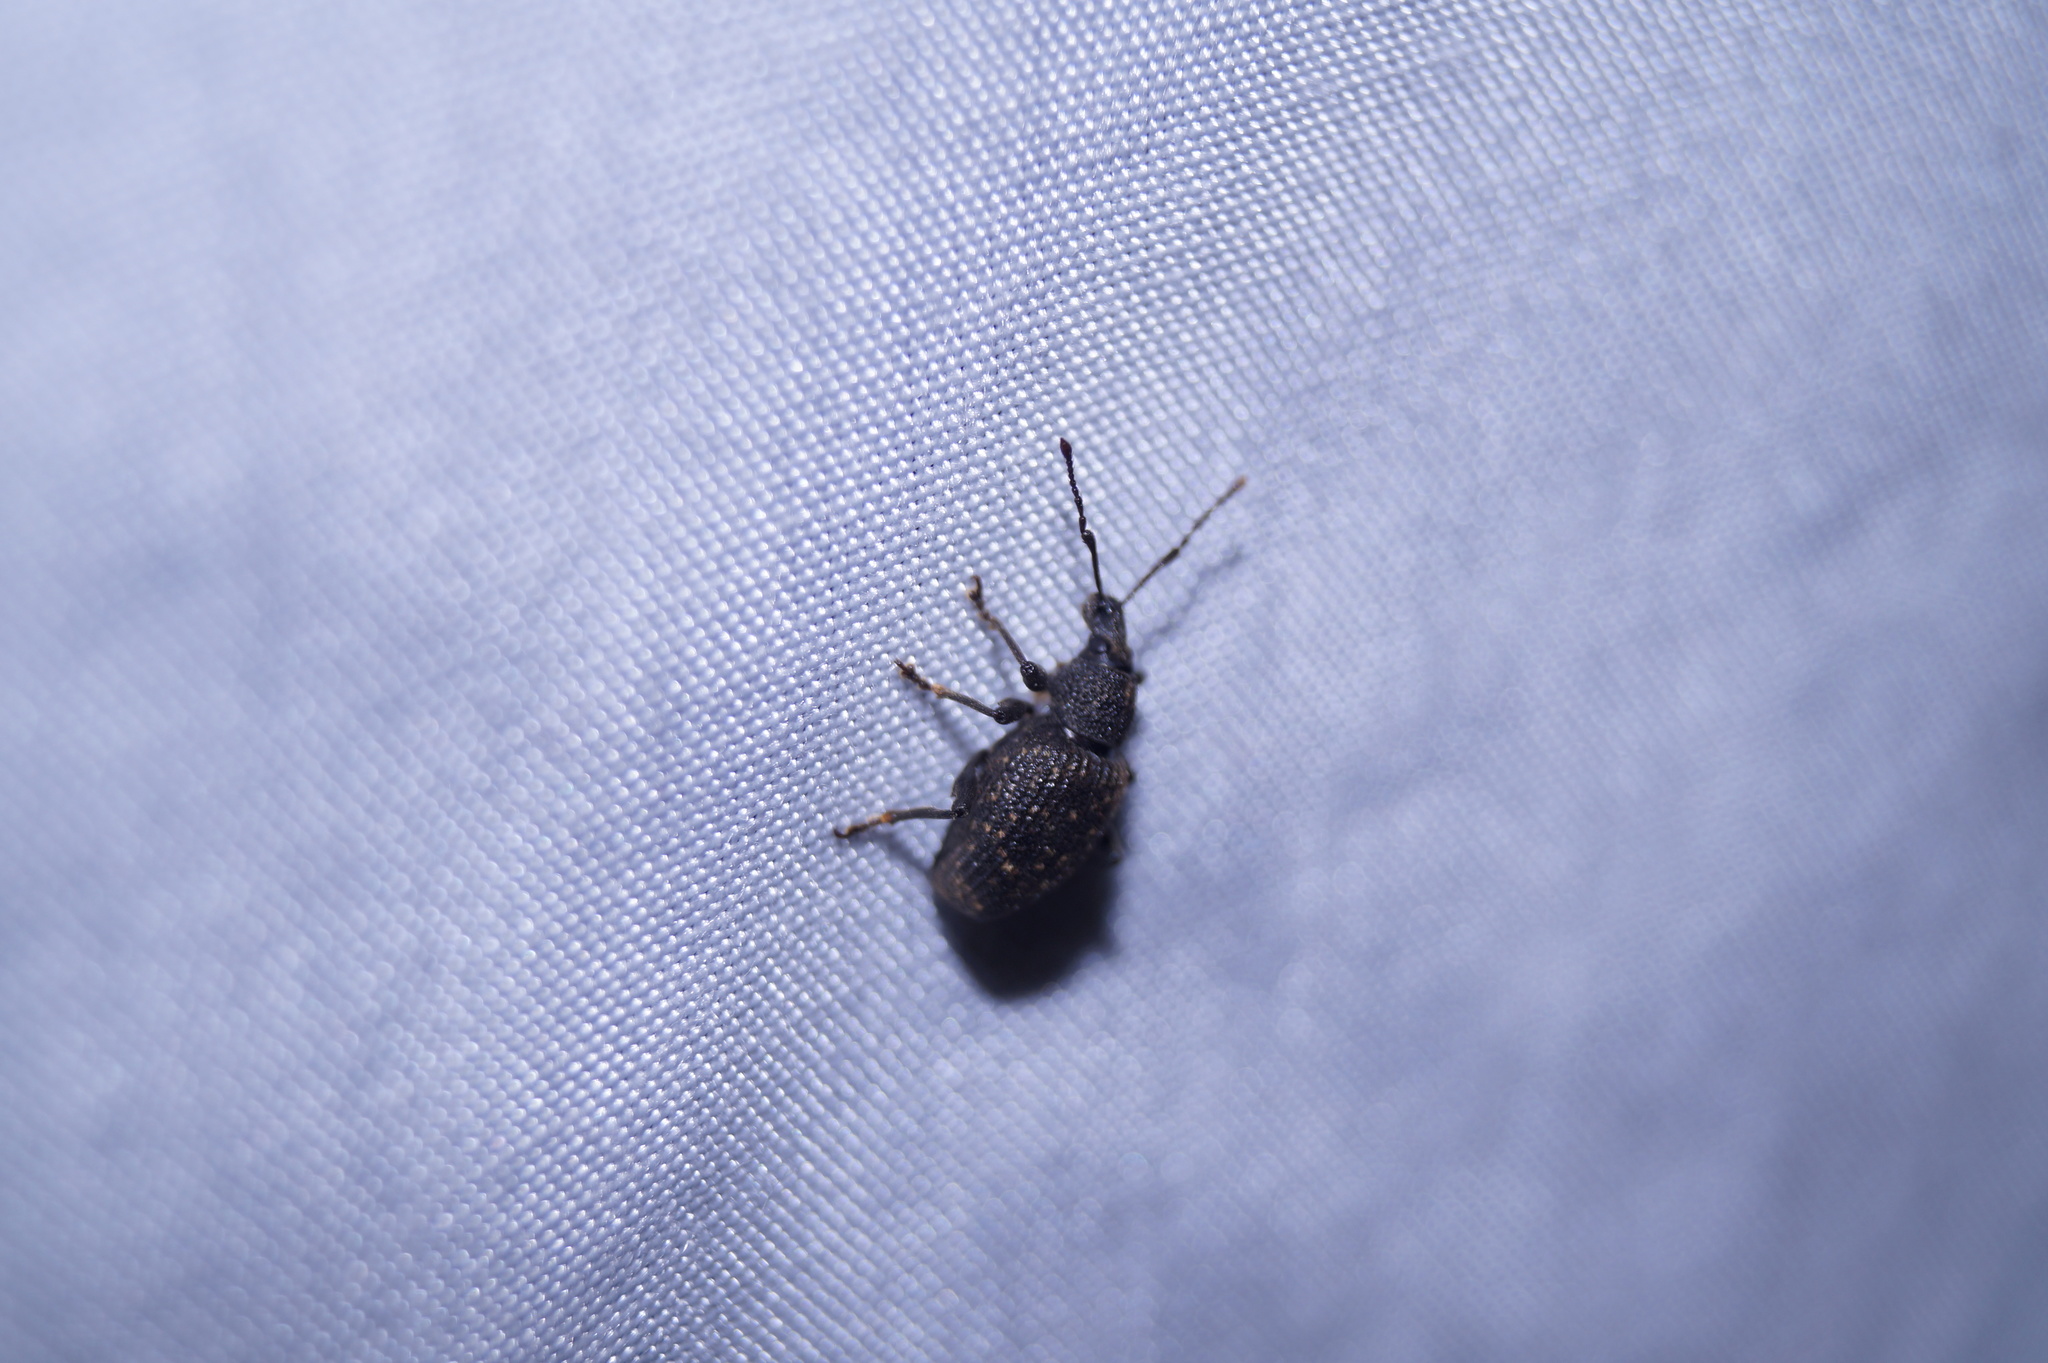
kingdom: Animalia
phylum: Arthropoda
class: Insecta
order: Coleoptera
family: Curculionidae
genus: Otiorhynchus
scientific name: Otiorhynchus sulcatus
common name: Black vine weevil
